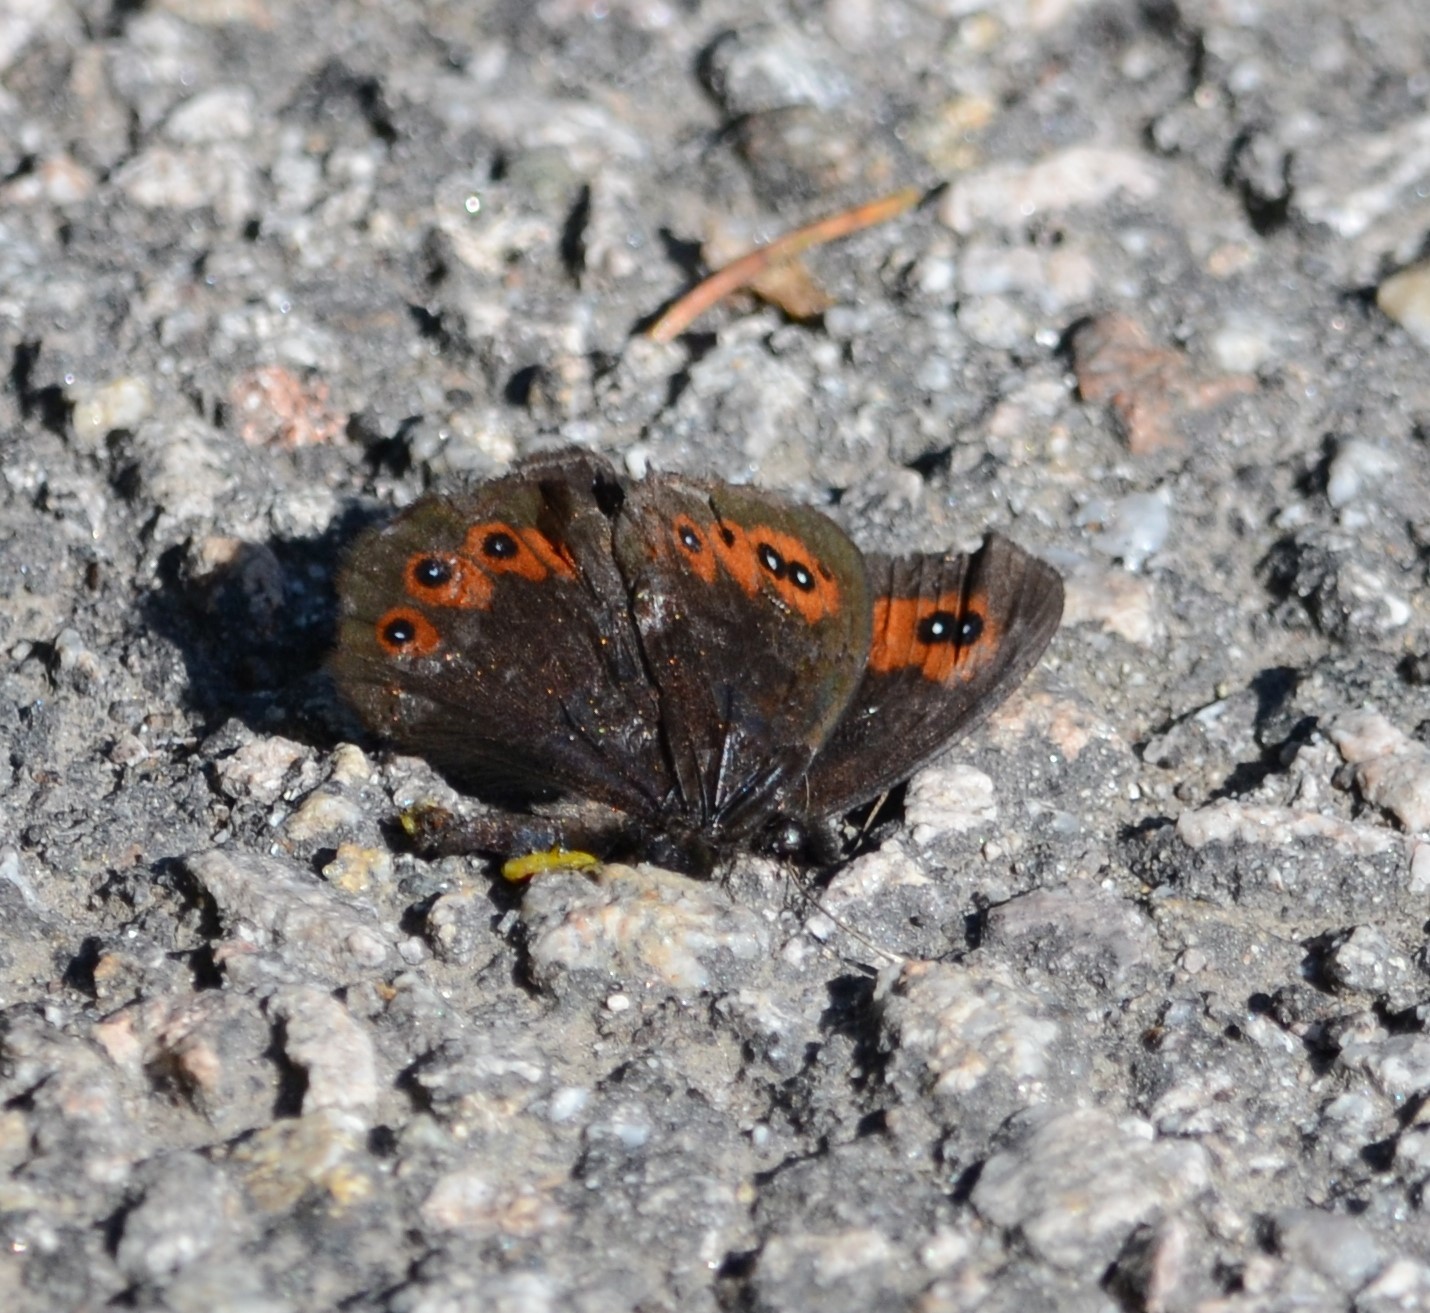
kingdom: Animalia
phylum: Arthropoda
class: Insecta
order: Lepidoptera
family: Nymphalidae
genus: Erebia
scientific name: Erebia meolans
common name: Piedmont ringlet
